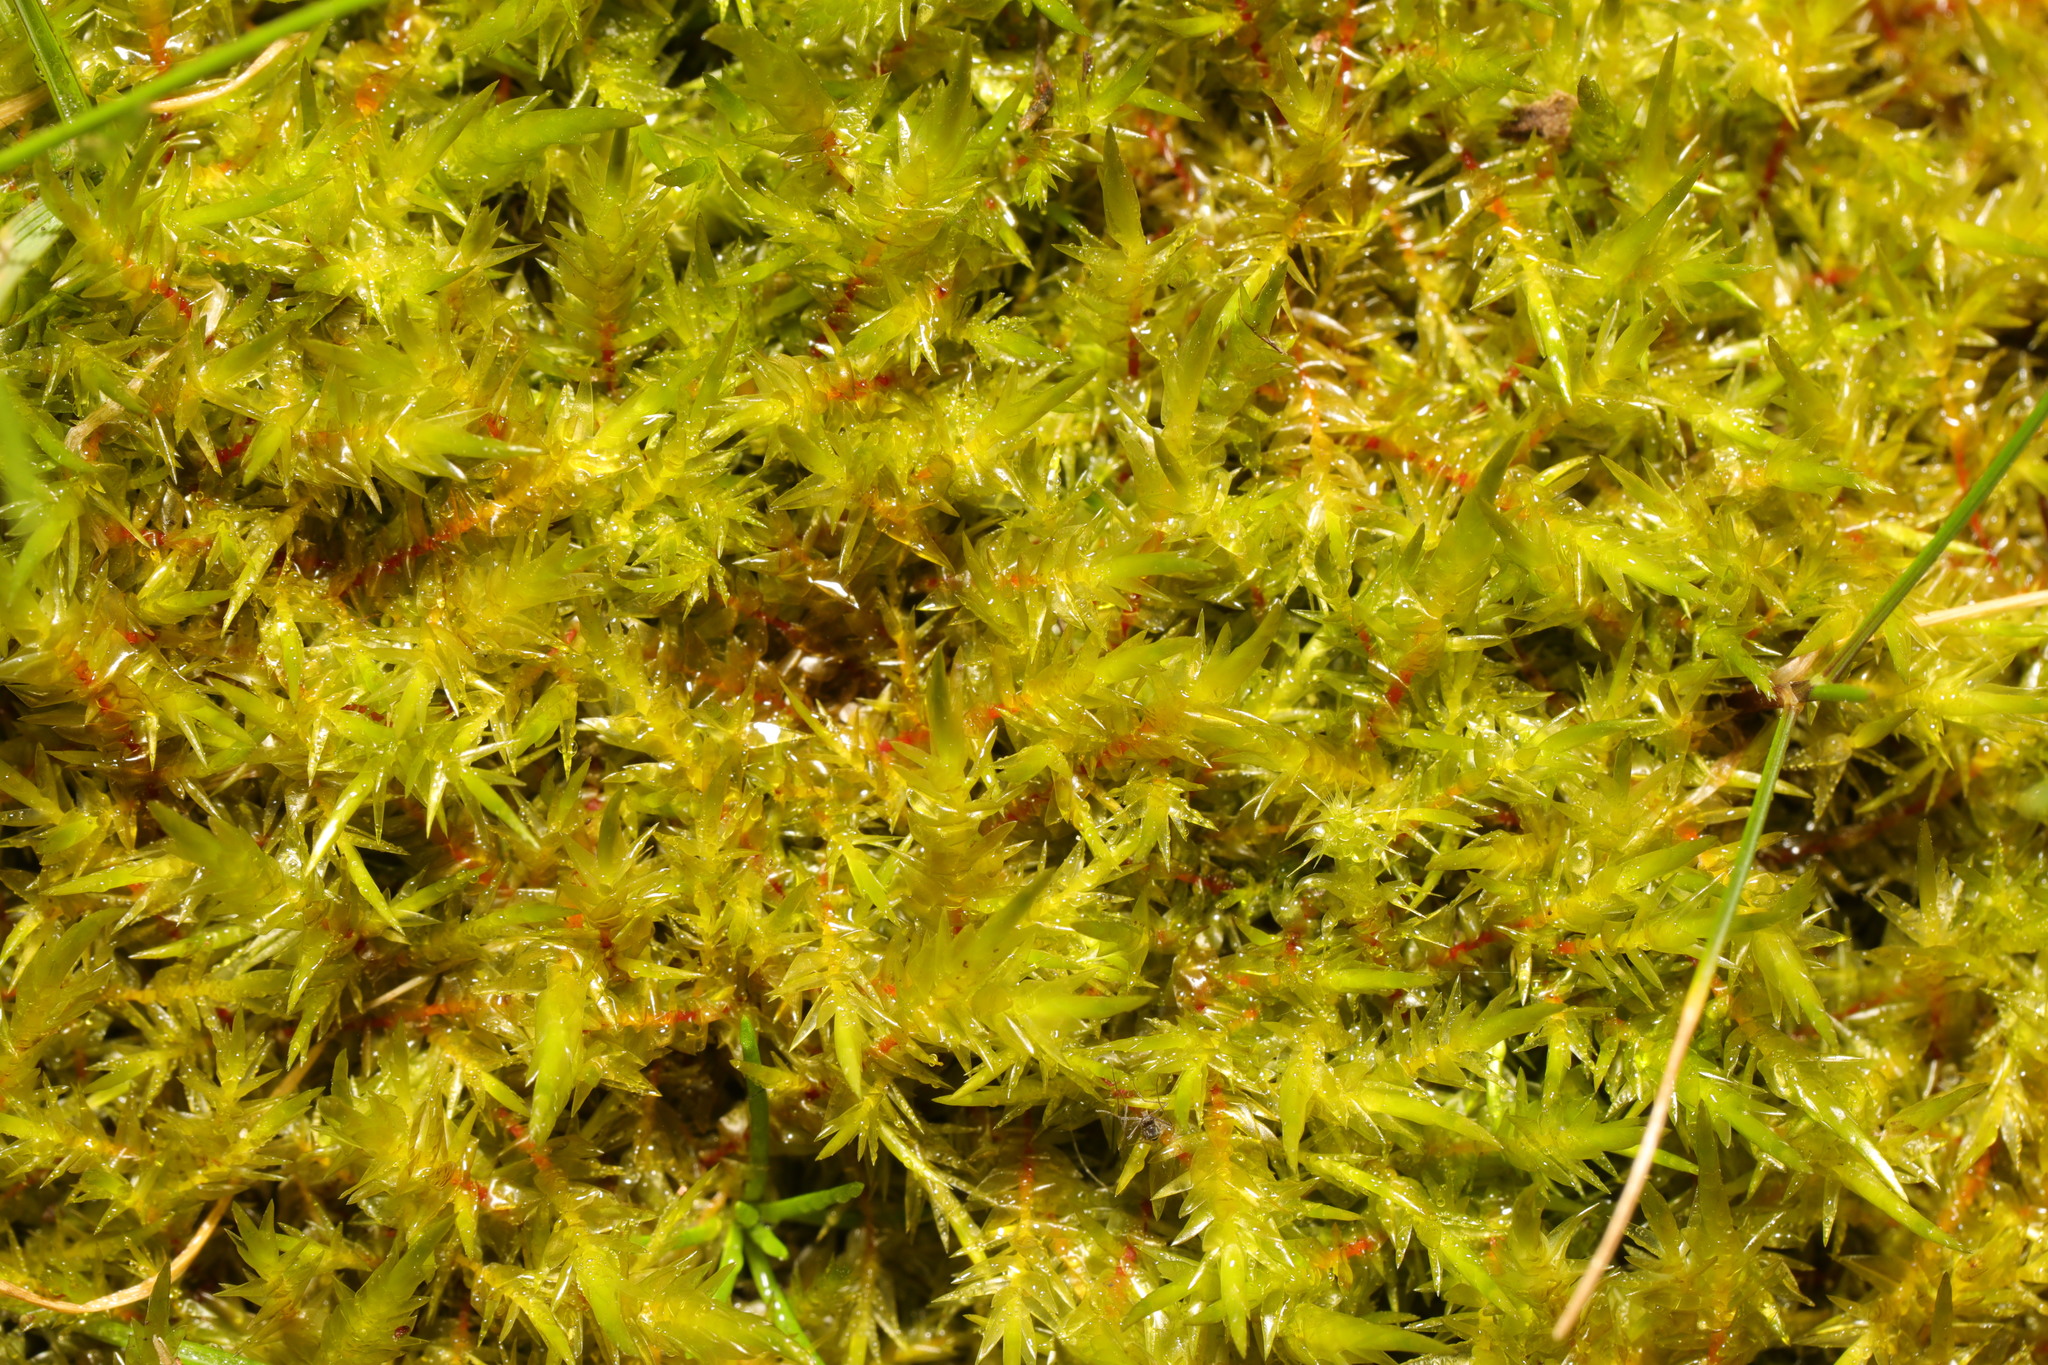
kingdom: Plantae
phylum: Bryophyta
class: Bryopsida
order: Hypnales
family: Pylaisiaceae
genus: Calliergonella
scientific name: Calliergonella cuspidata
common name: Common large wetland moss
